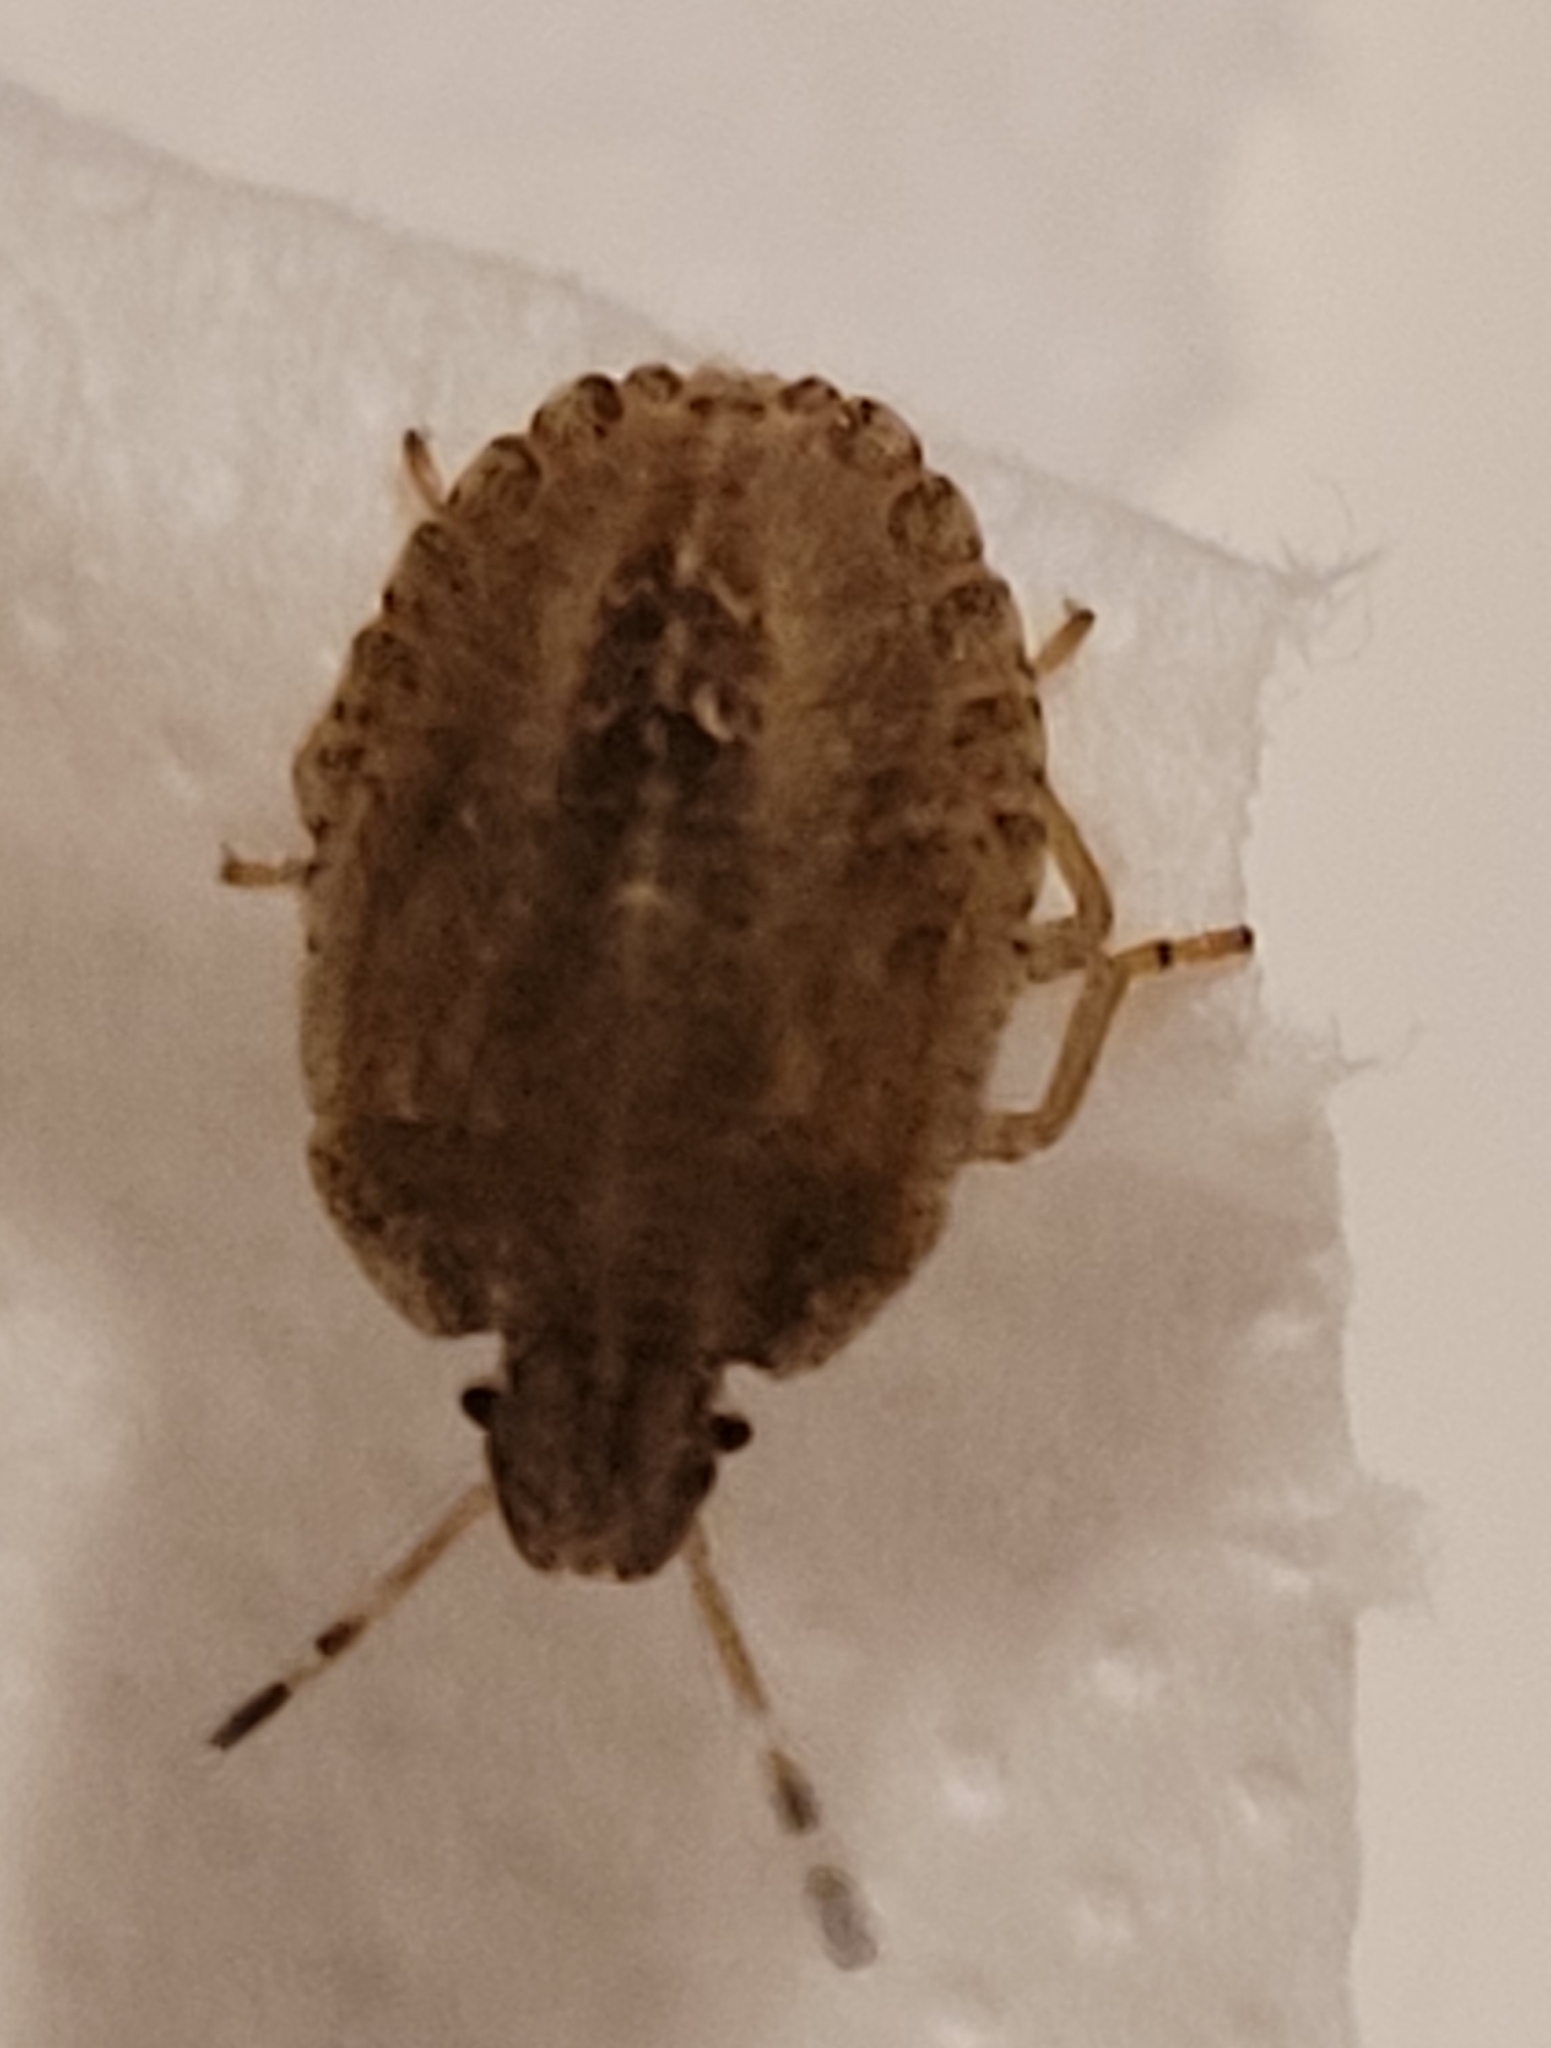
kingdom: Animalia
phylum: Arthropoda
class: Insecta
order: Hemiptera
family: Pentatomidae
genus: Dolycoris
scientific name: Dolycoris baccarum
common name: Sloe bug
